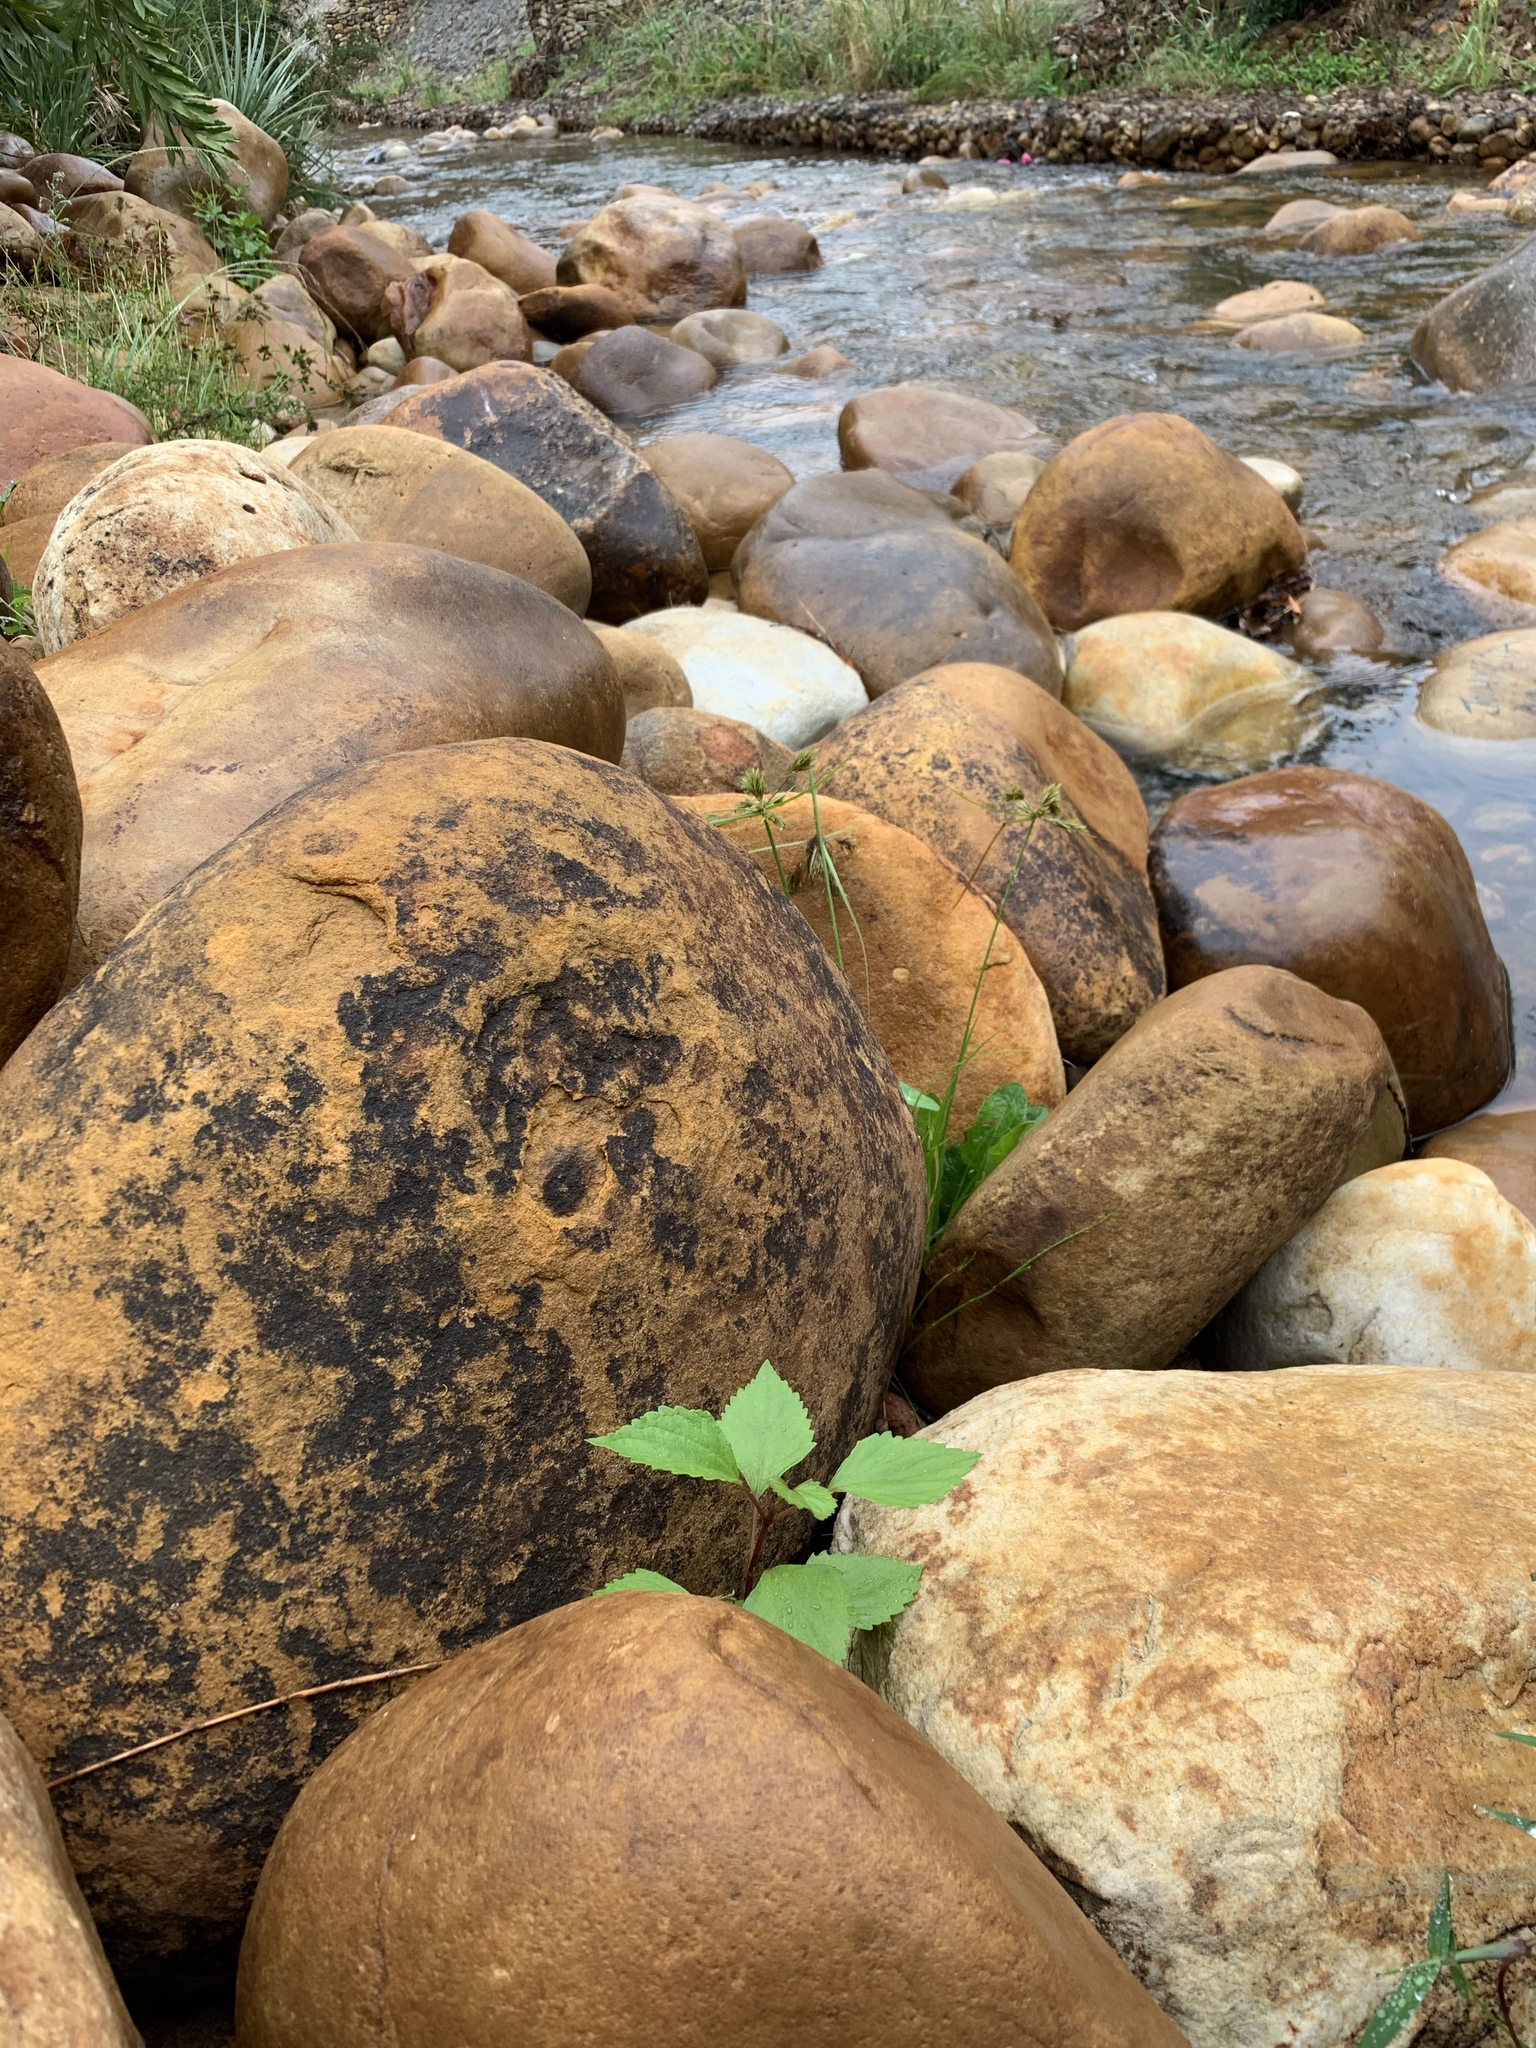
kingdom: Plantae
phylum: Tracheophyta
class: Magnoliopsida
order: Asterales
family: Asteraceae
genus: Ageratina
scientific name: Ageratina adenophora
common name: Sticky snakeroot
